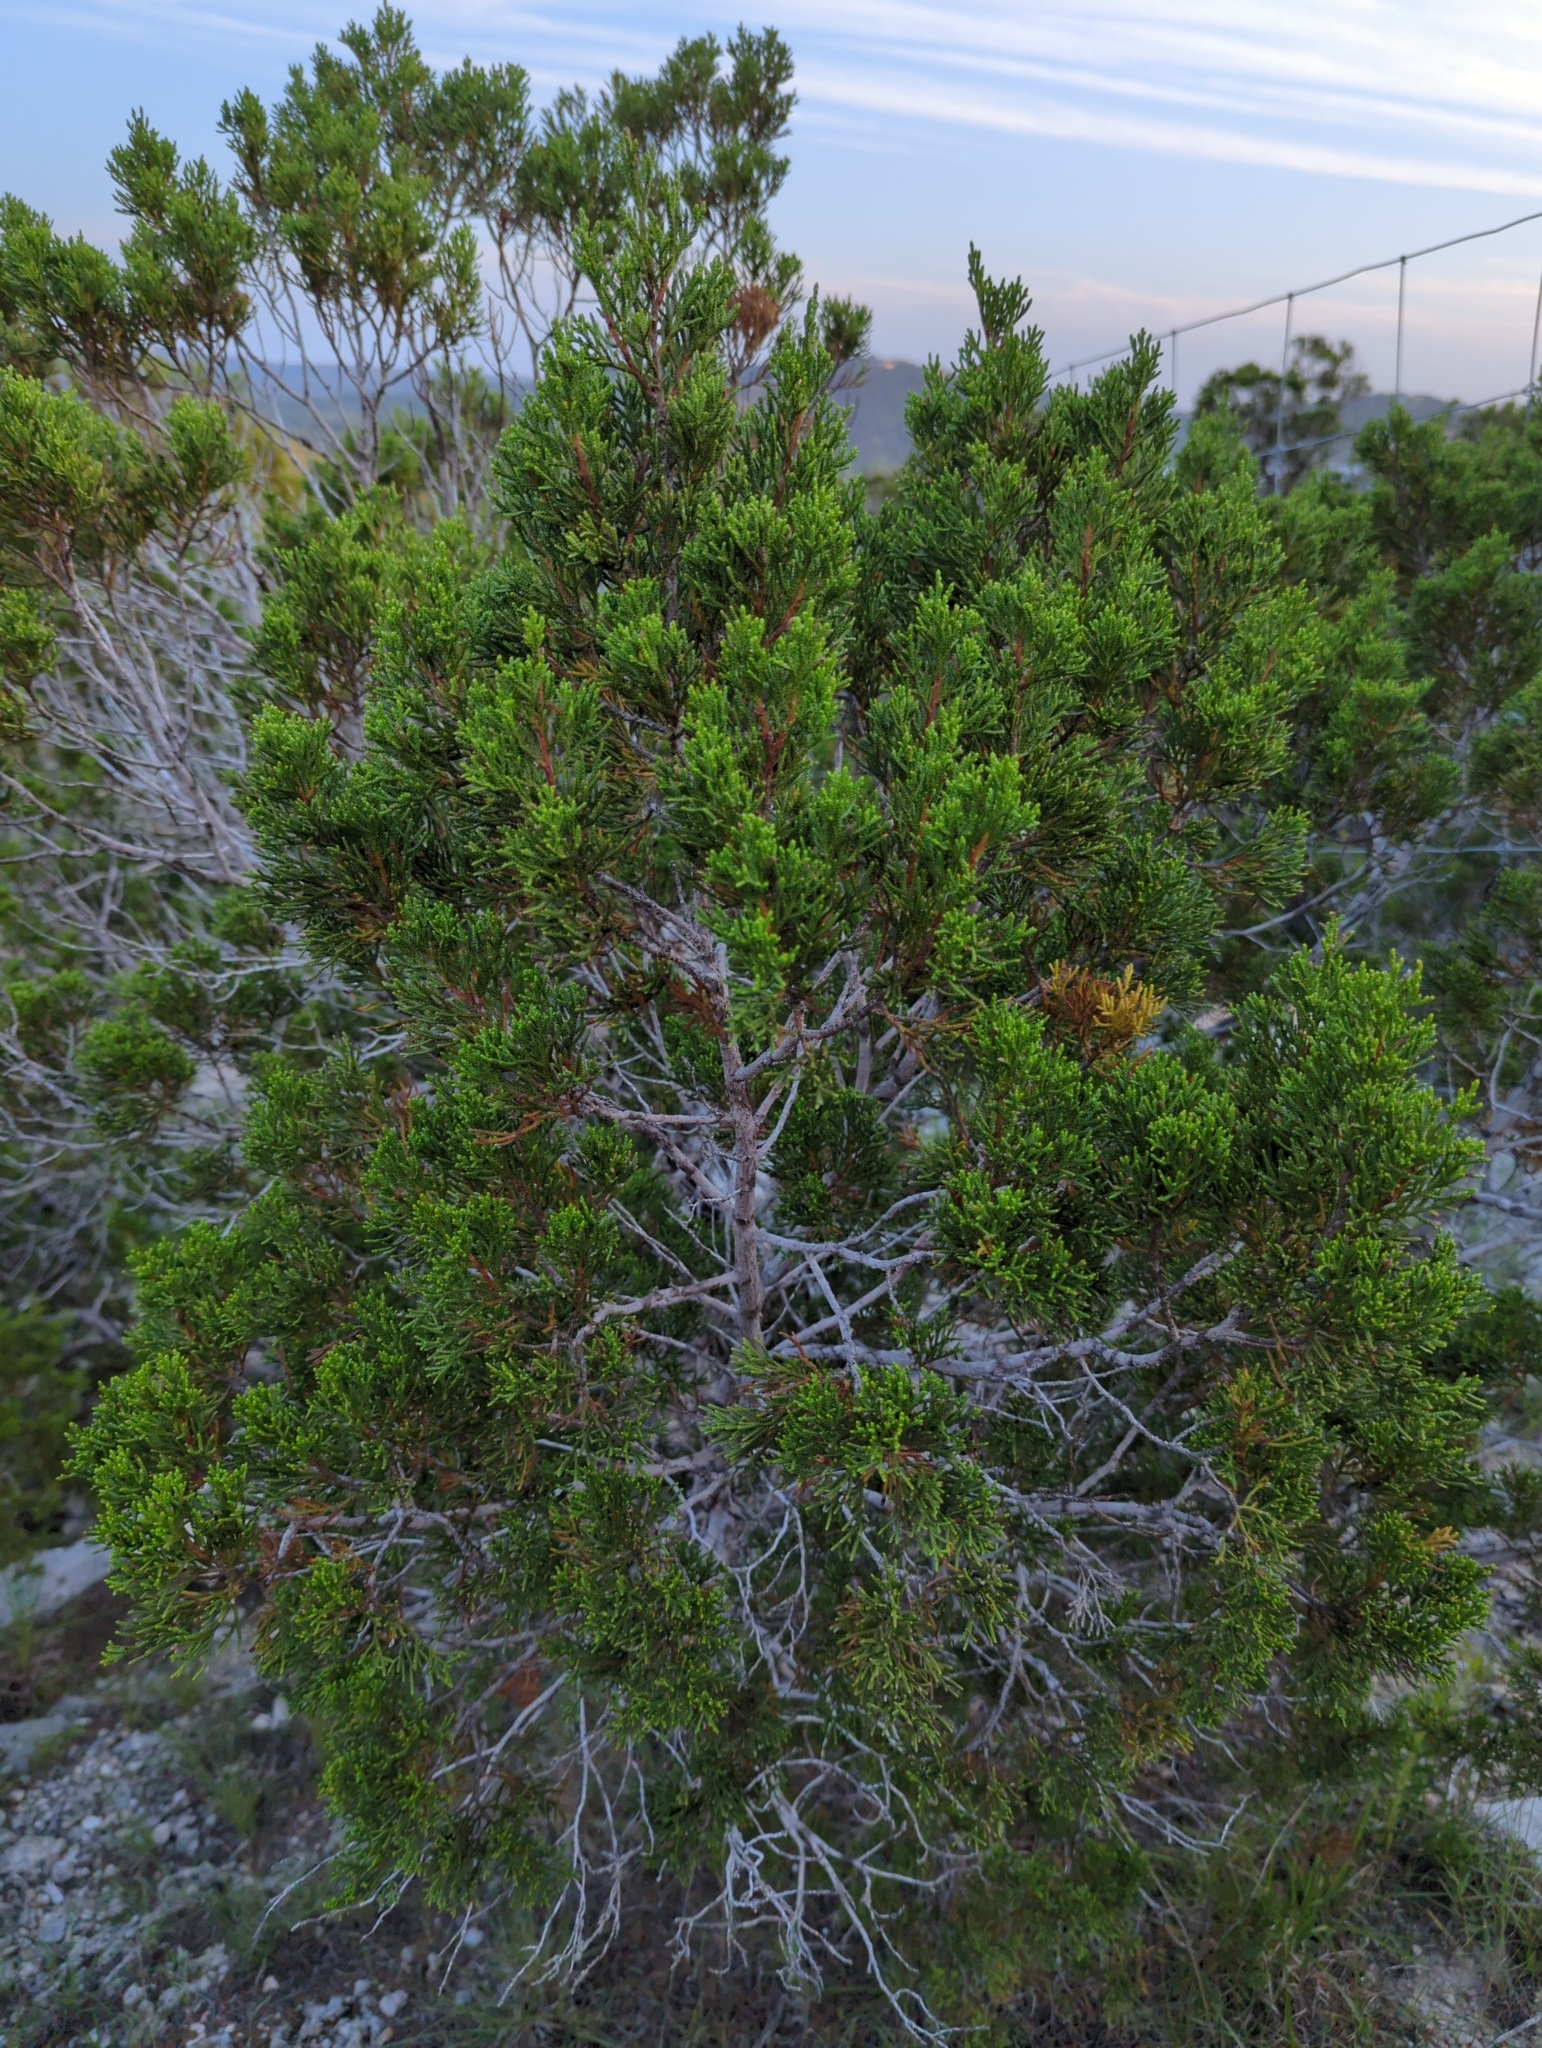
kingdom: Plantae
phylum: Tracheophyta
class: Pinopsida
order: Pinales
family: Cupressaceae
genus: Juniperus
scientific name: Juniperus ashei
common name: Mexican juniper
